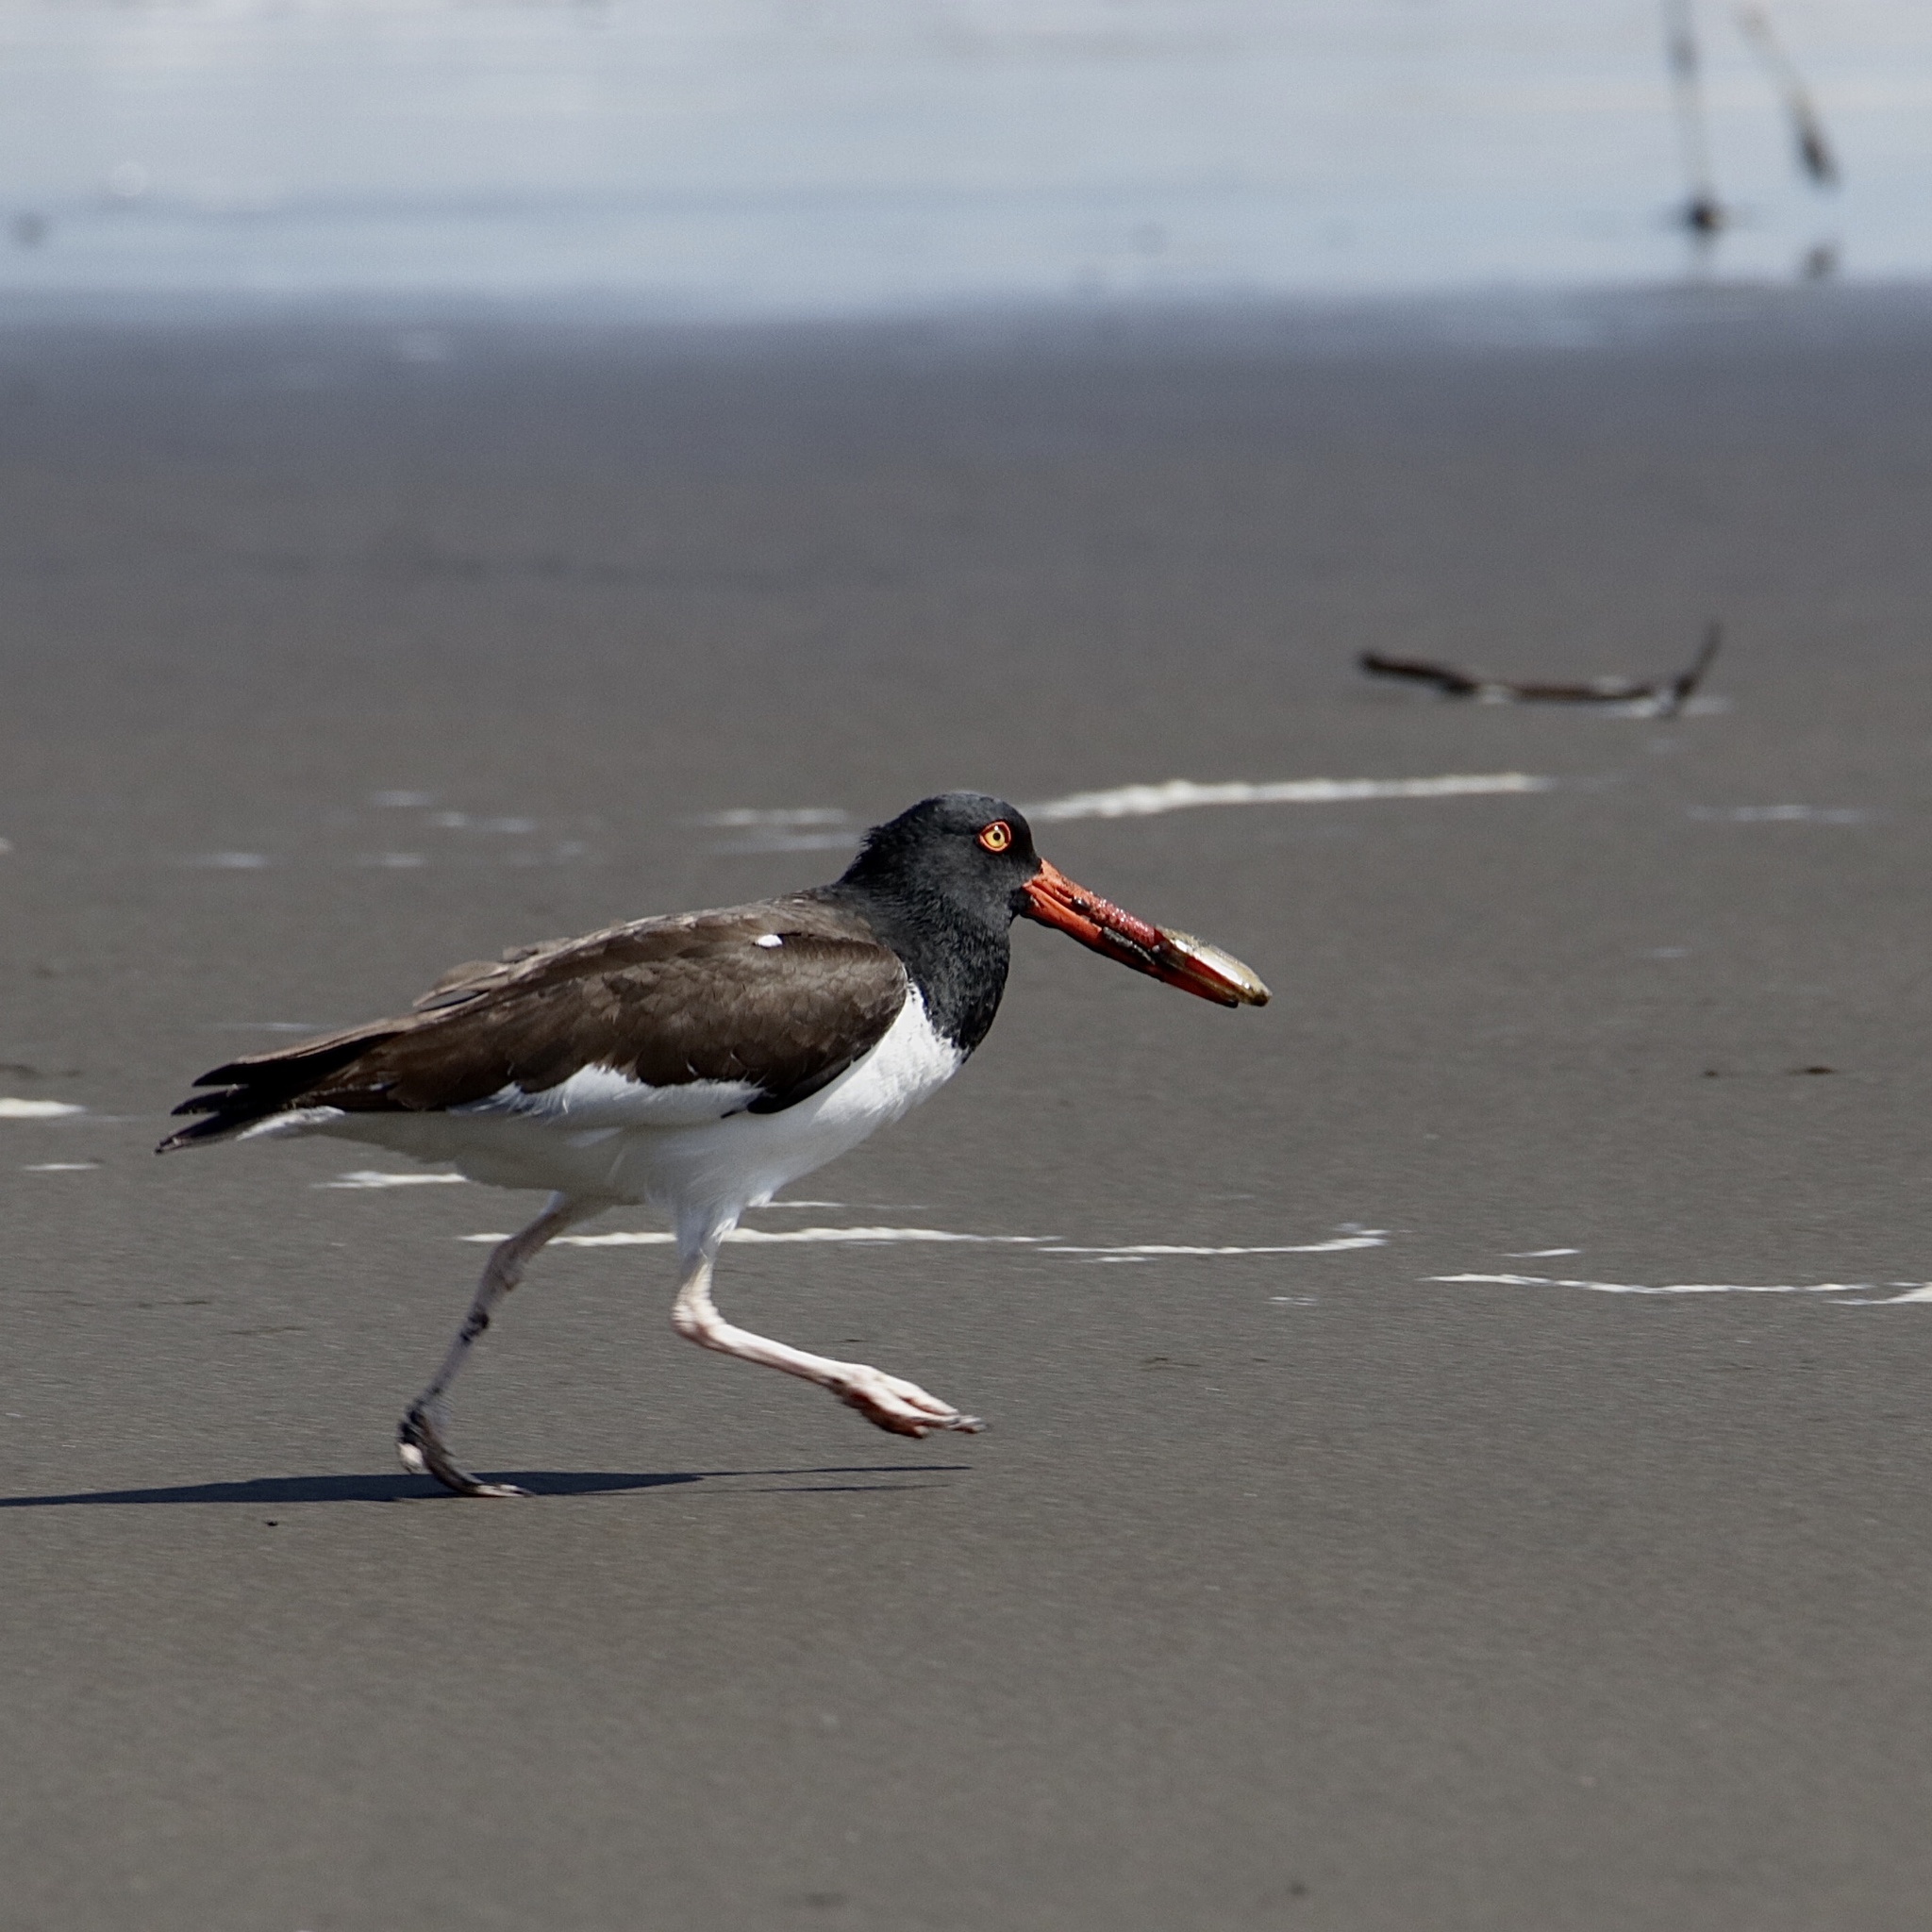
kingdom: Animalia
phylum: Chordata
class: Aves
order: Charadriiformes
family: Haematopodidae
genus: Haematopus
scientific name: Haematopus palliatus
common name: American oystercatcher
